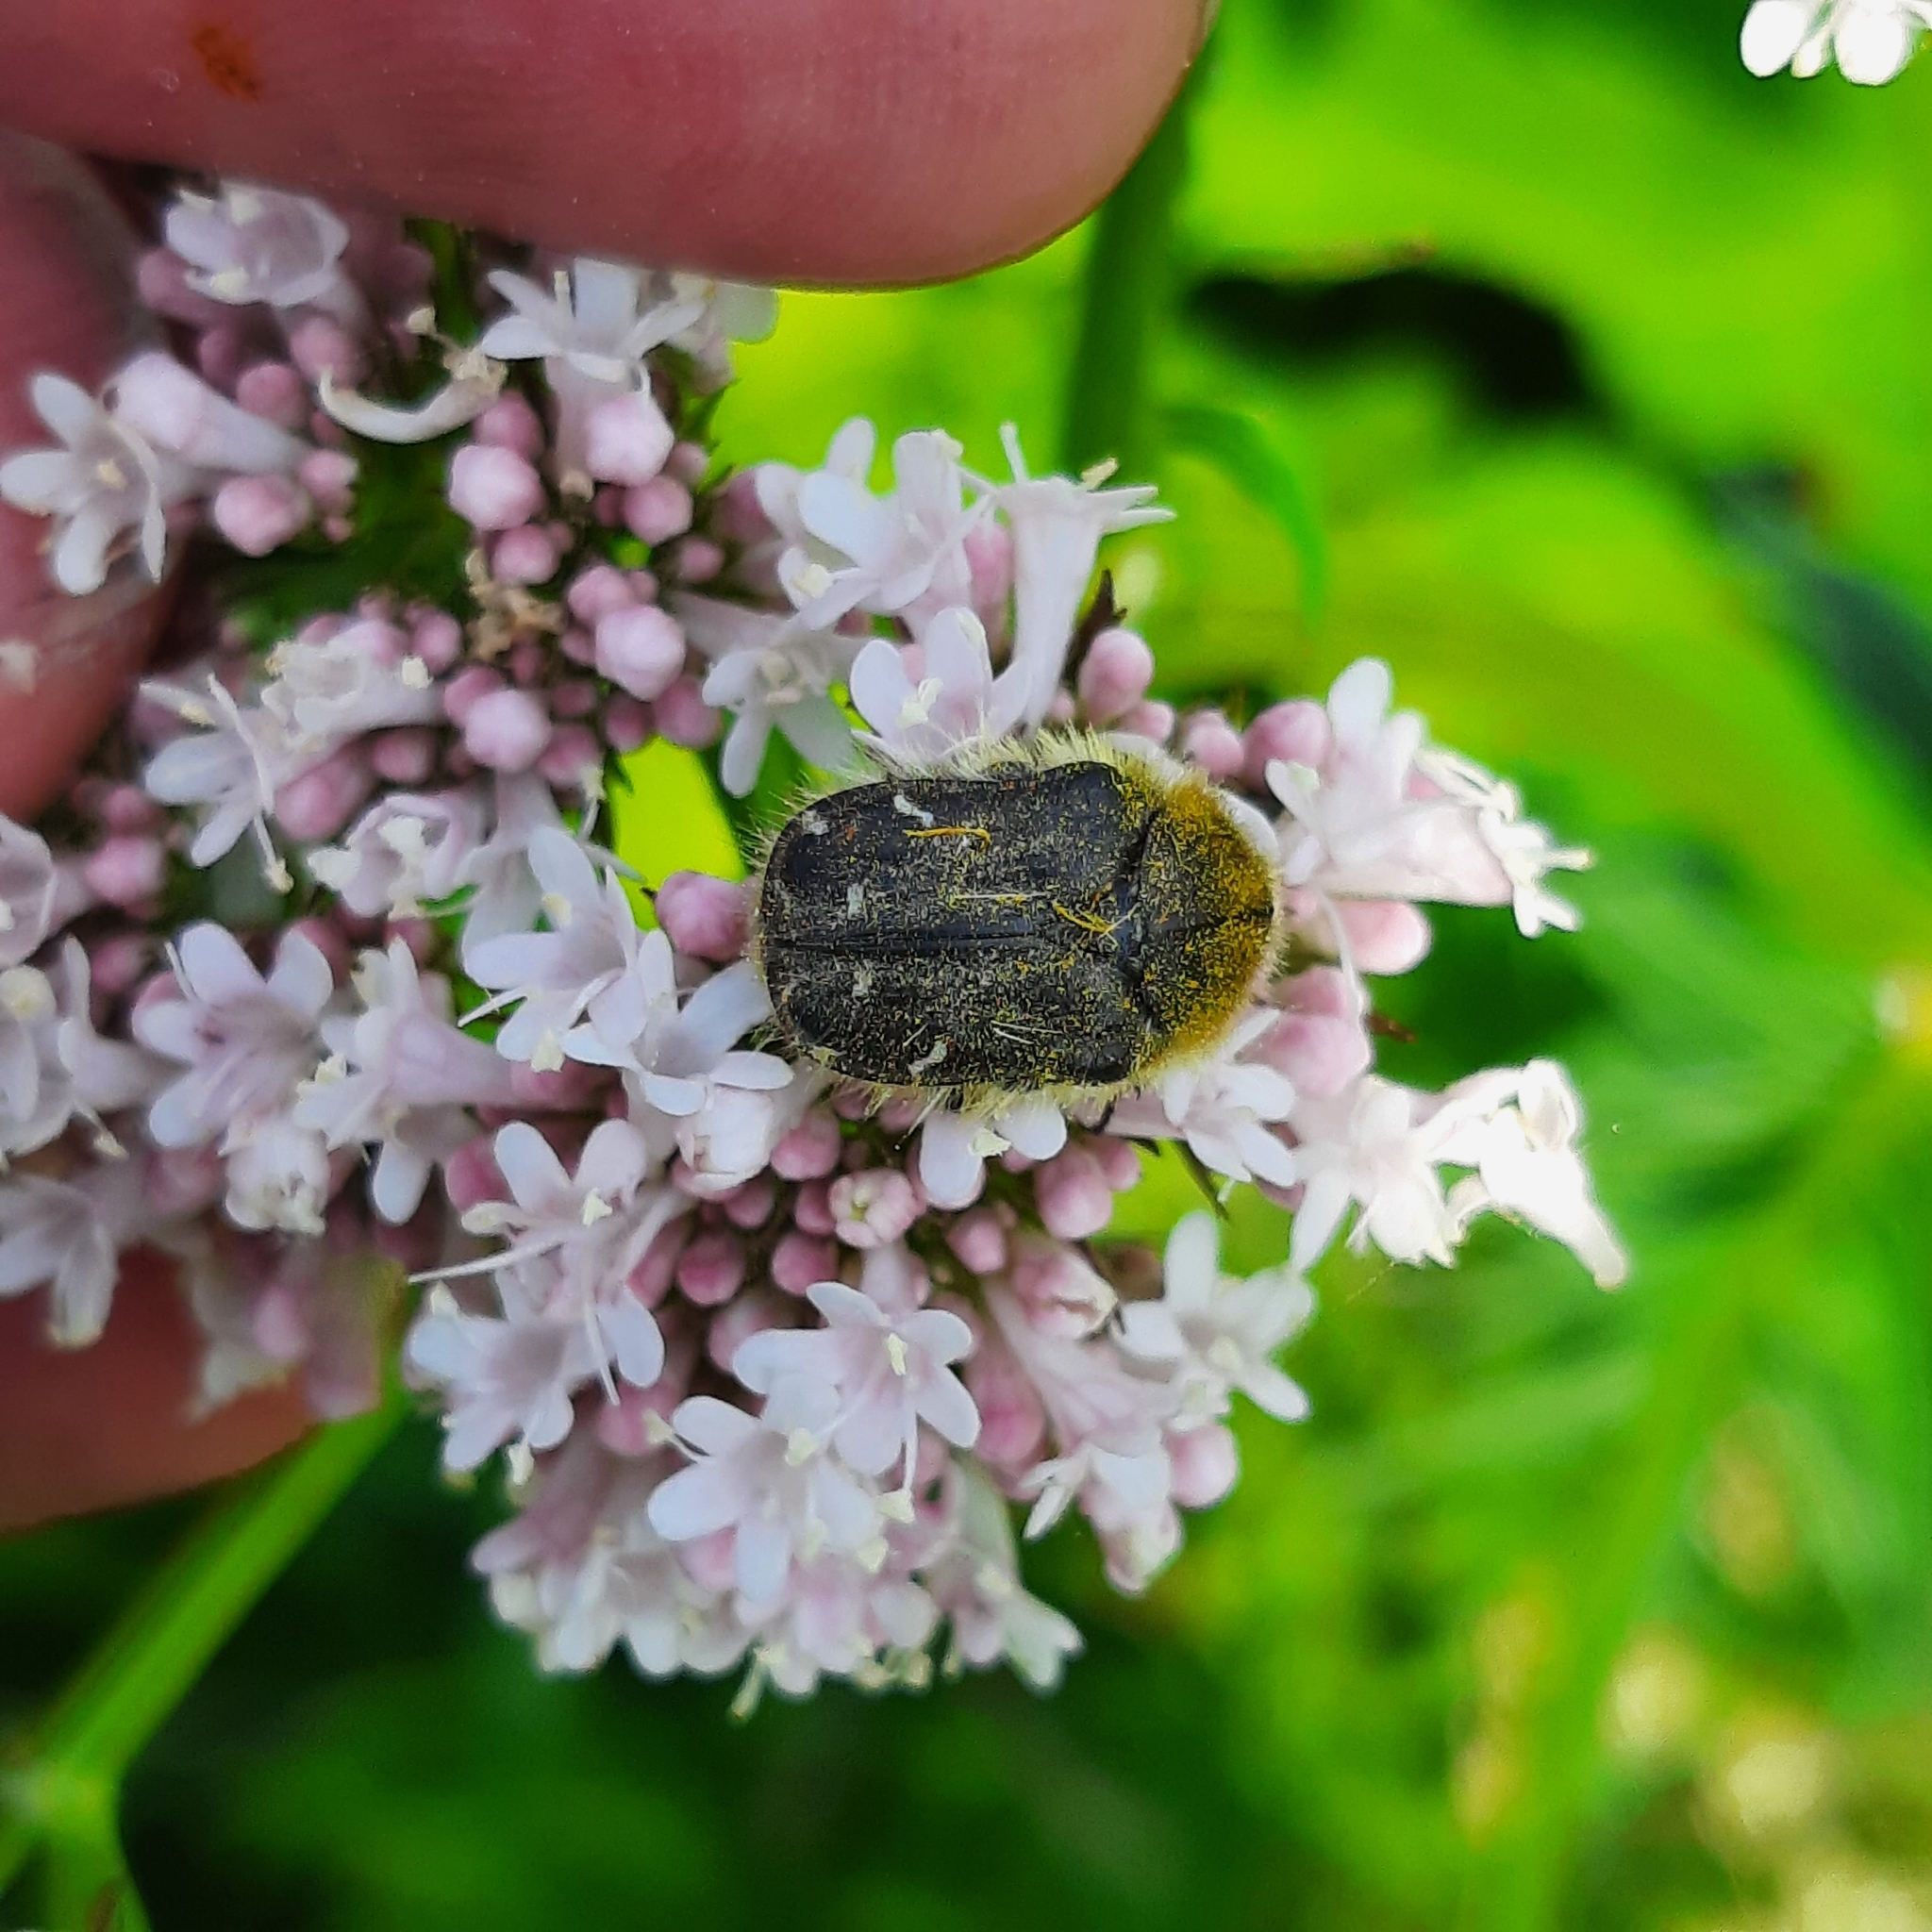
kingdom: Animalia
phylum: Arthropoda
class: Insecta
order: Coleoptera
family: Scarabaeidae
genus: Tropinota
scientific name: Tropinota hirta
